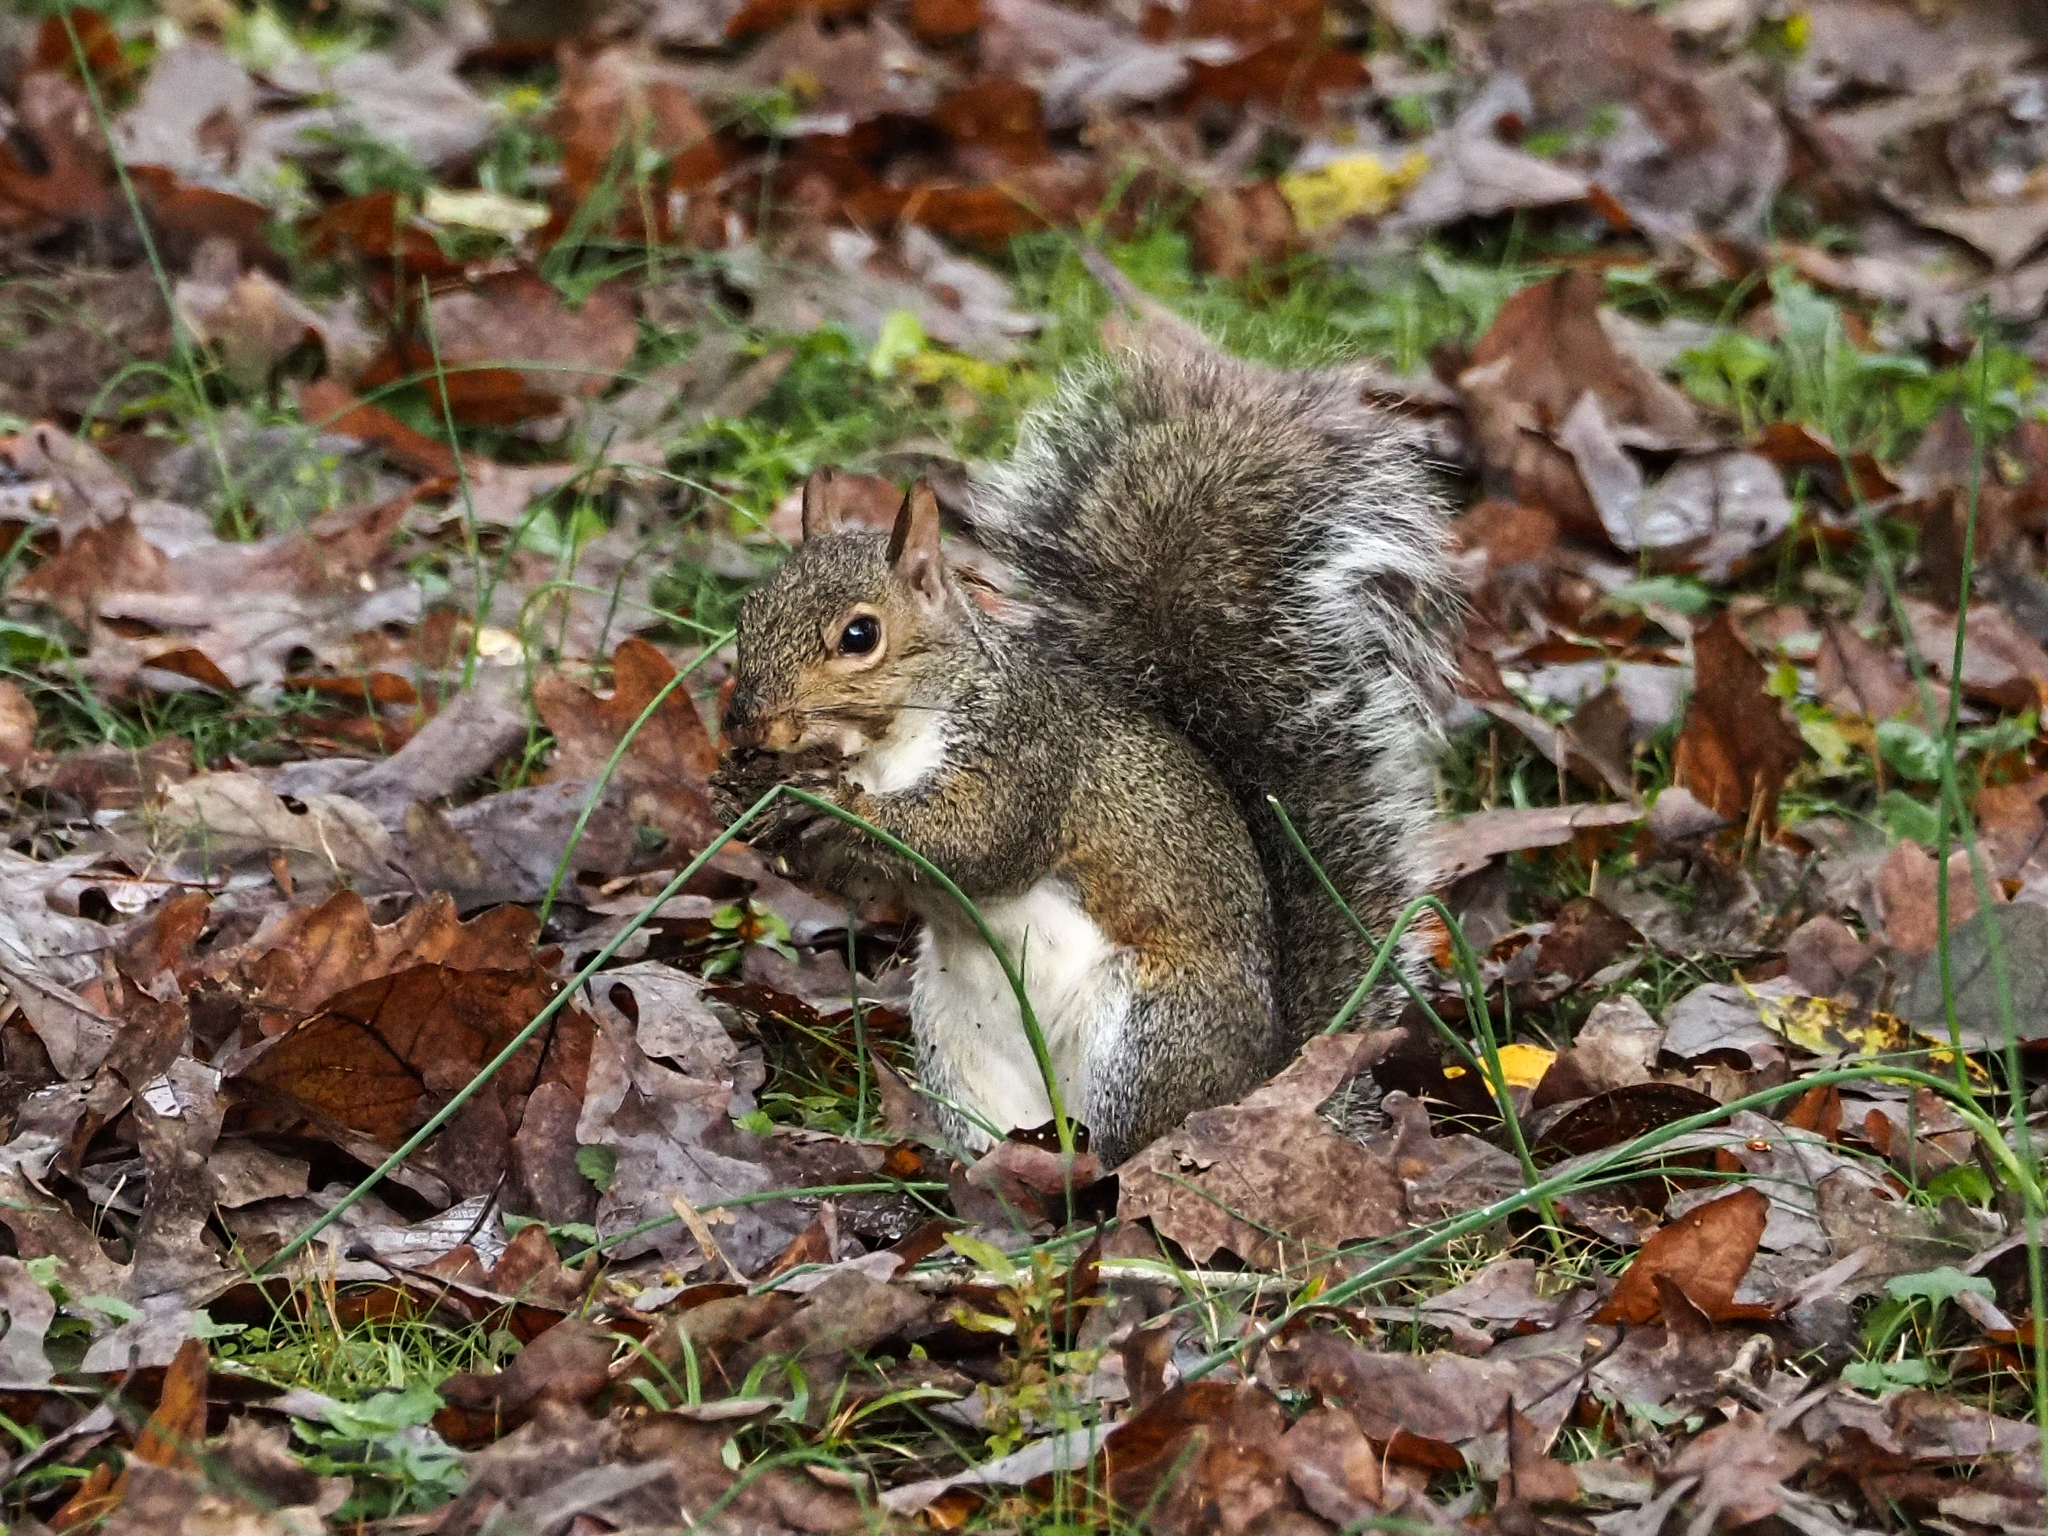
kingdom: Animalia
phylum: Chordata
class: Mammalia
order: Rodentia
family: Sciuridae
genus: Sciurus
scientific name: Sciurus carolinensis
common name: Eastern gray squirrel
